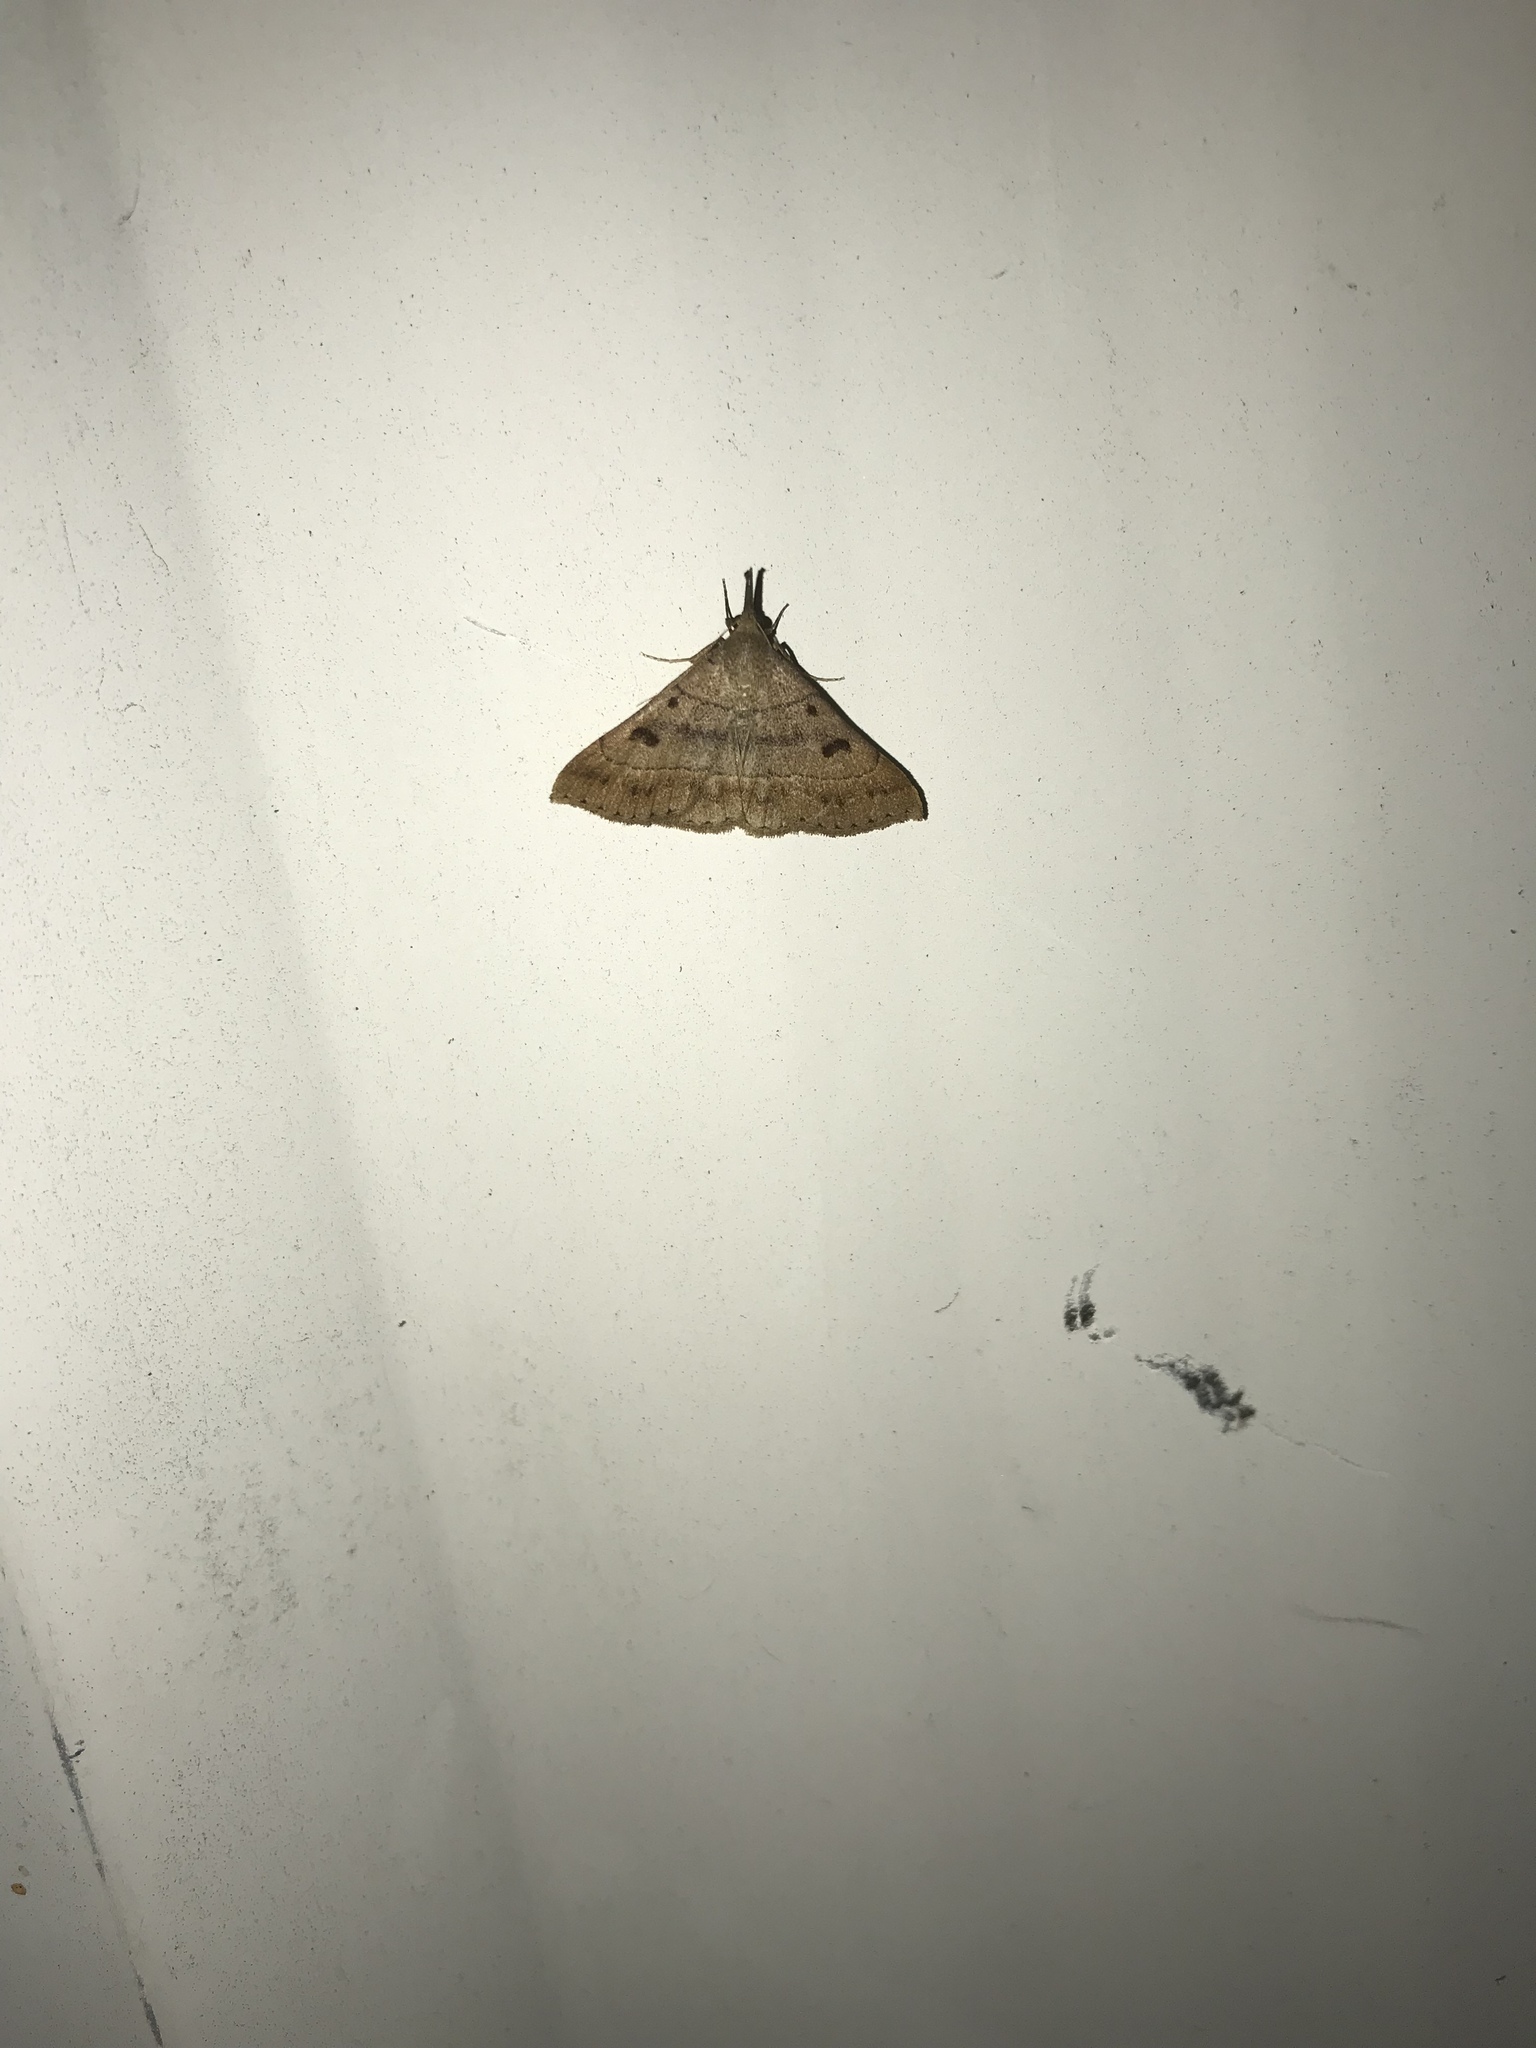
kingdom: Animalia
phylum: Arthropoda
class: Insecta
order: Lepidoptera
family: Erebidae
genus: Renia
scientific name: Renia flavipunctalis
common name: Yellow-spotted renia moth
